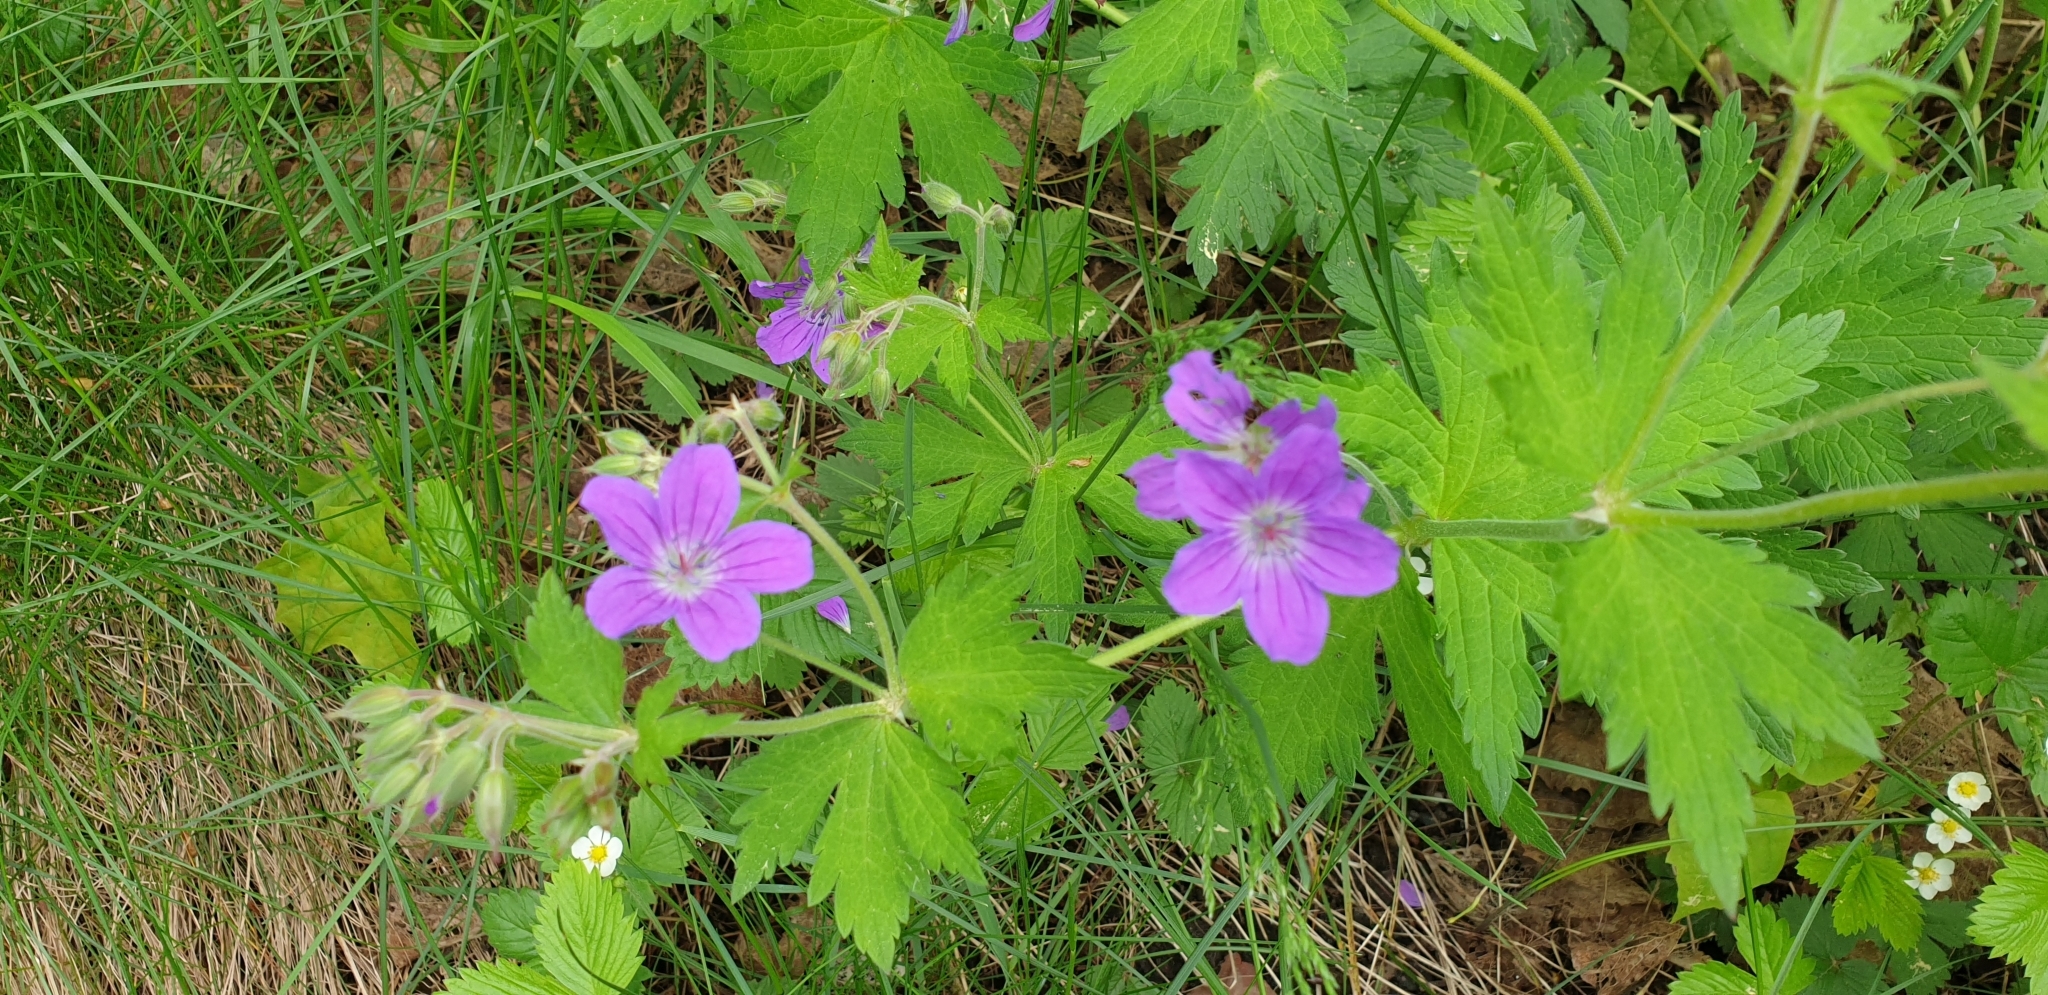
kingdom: Plantae
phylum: Tracheophyta
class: Magnoliopsida
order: Geraniales
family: Geraniaceae
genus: Geranium
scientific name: Geranium sylvaticum
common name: Wood crane's-bill
